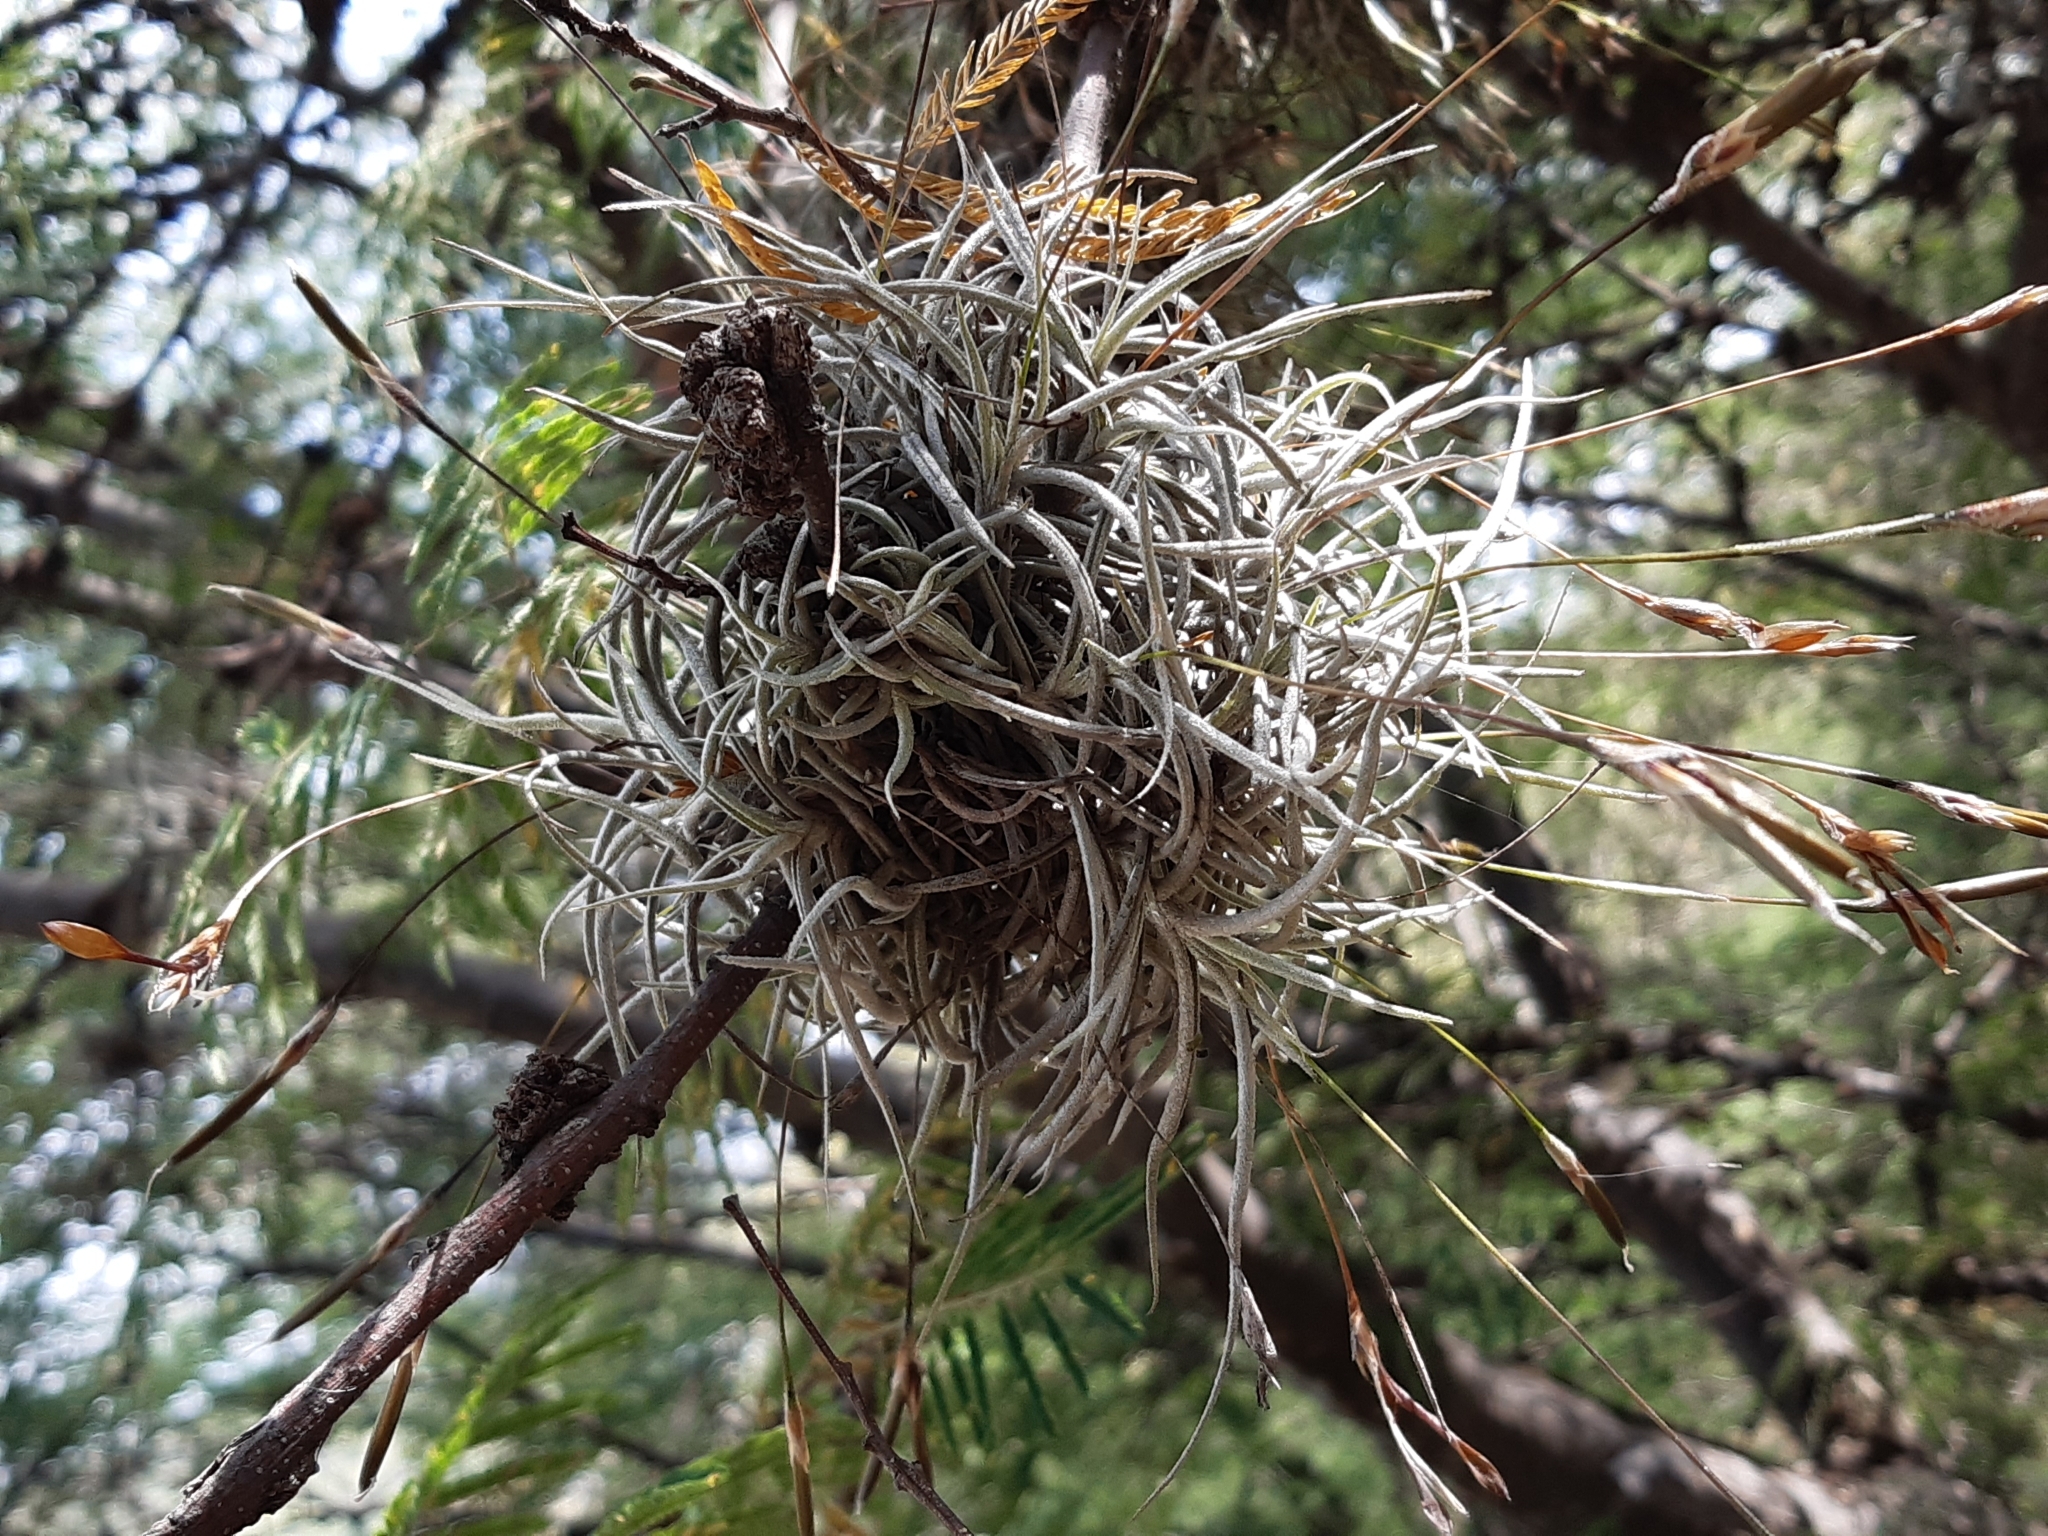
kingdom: Plantae
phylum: Tracheophyta
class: Liliopsida
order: Poales
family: Bromeliaceae
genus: Tillandsia
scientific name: Tillandsia recurvata
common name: Small ballmoss
